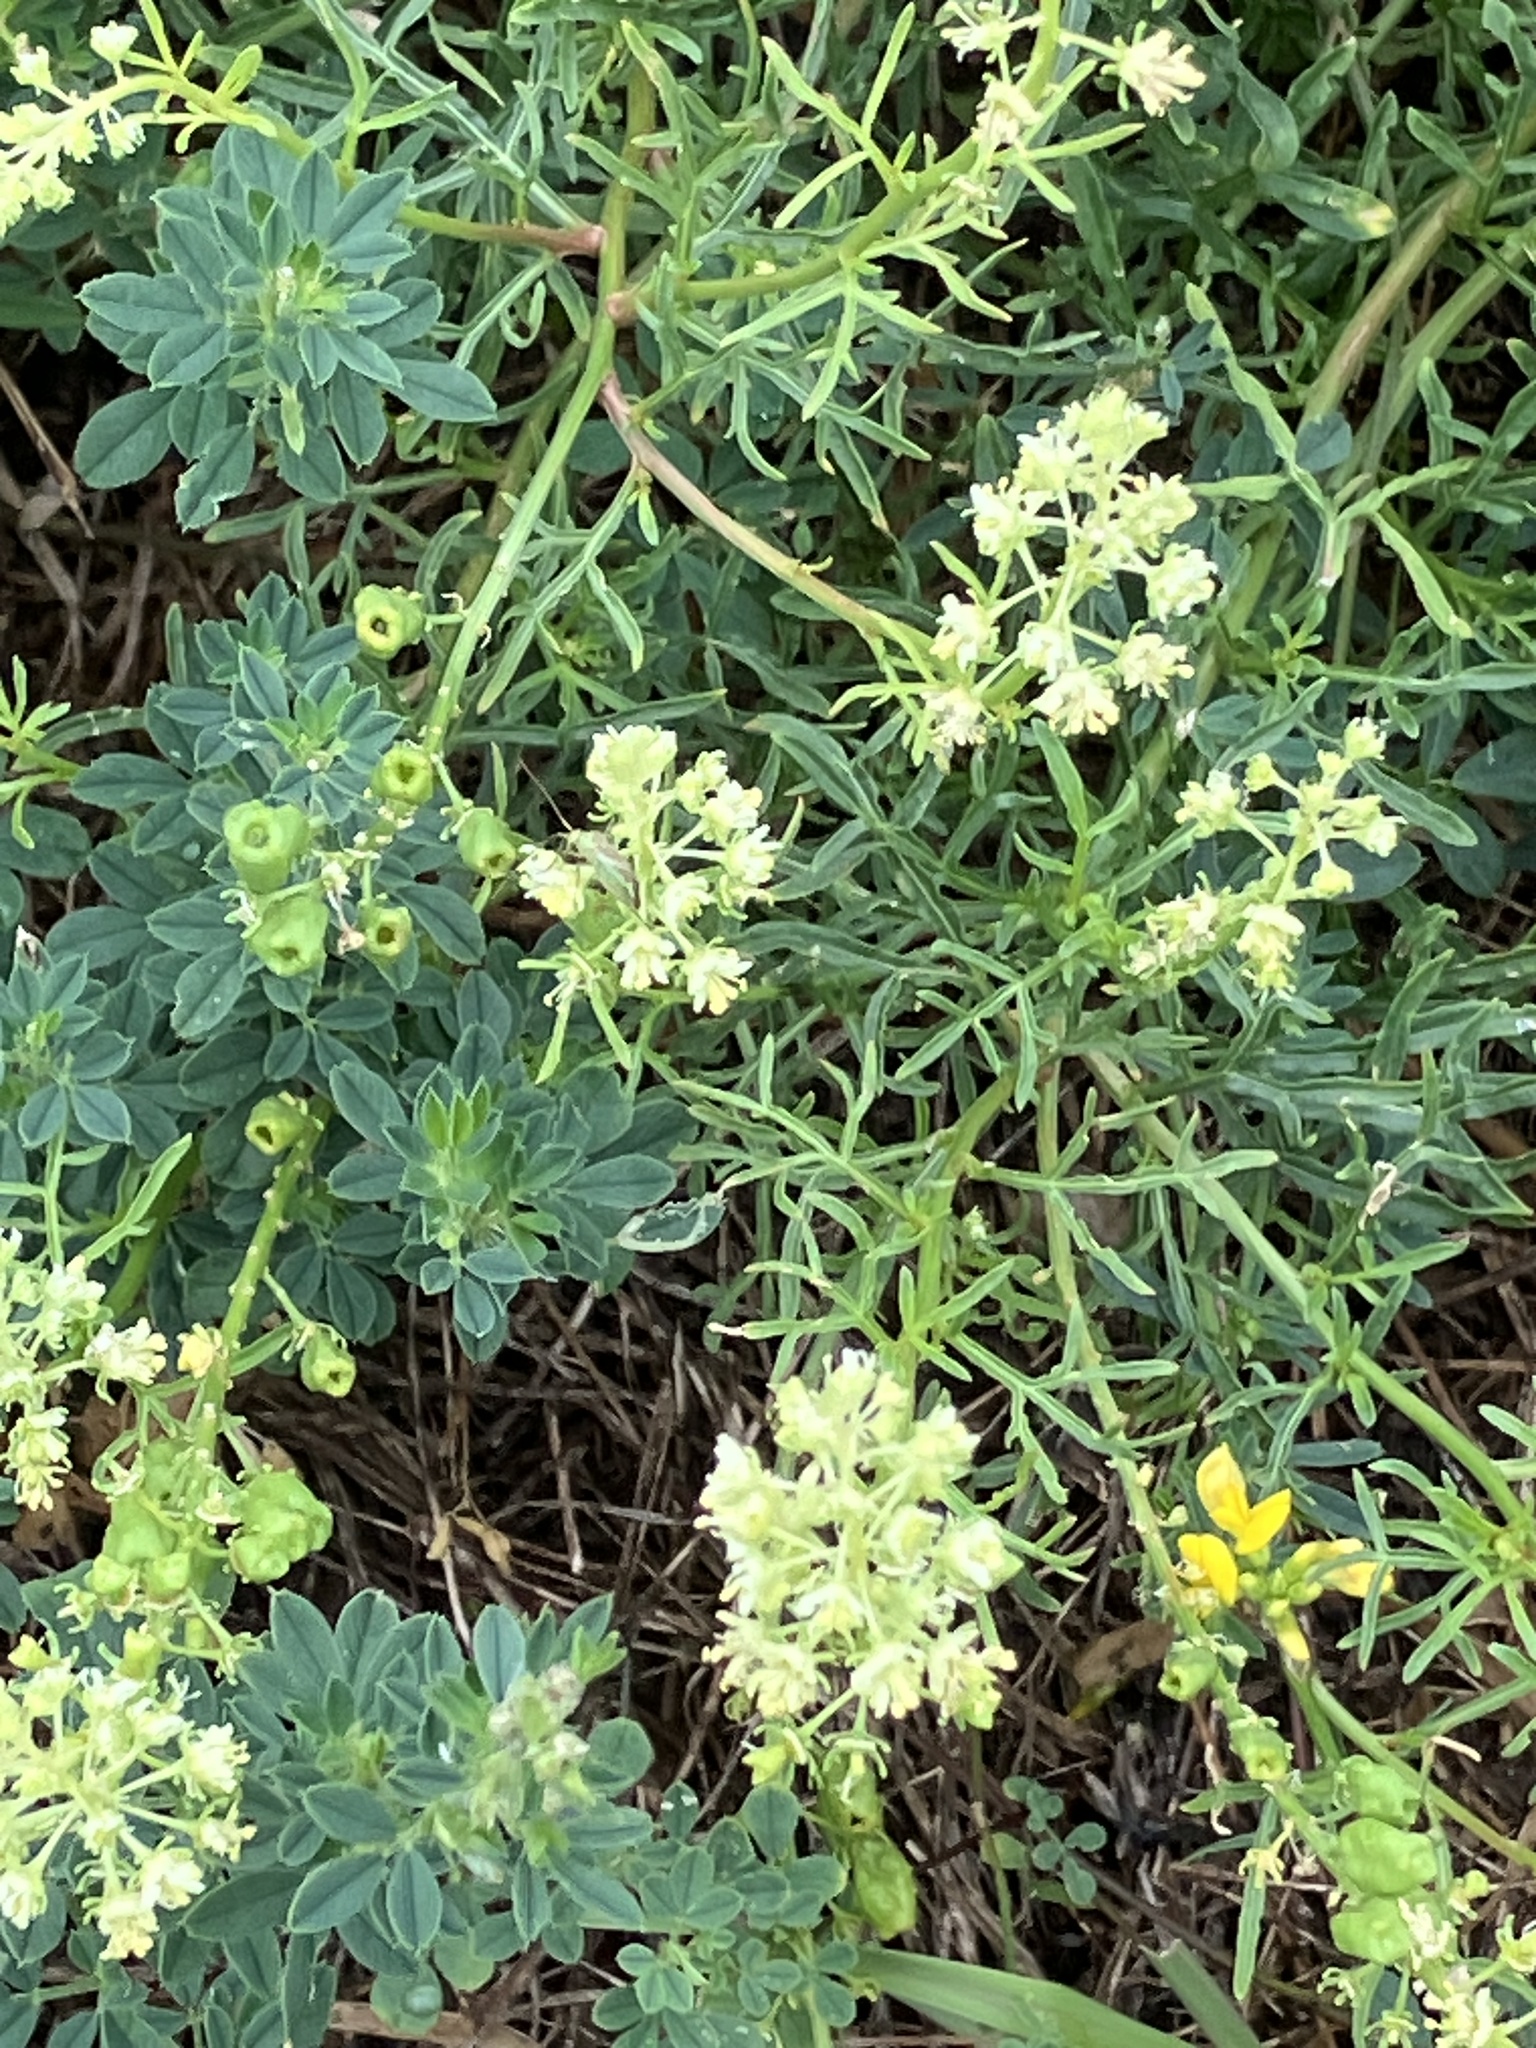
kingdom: Plantae
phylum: Tracheophyta
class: Magnoliopsida
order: Brassicales
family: Resedaceae
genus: Reseda
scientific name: Reseda lutea
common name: Wild mignonette
